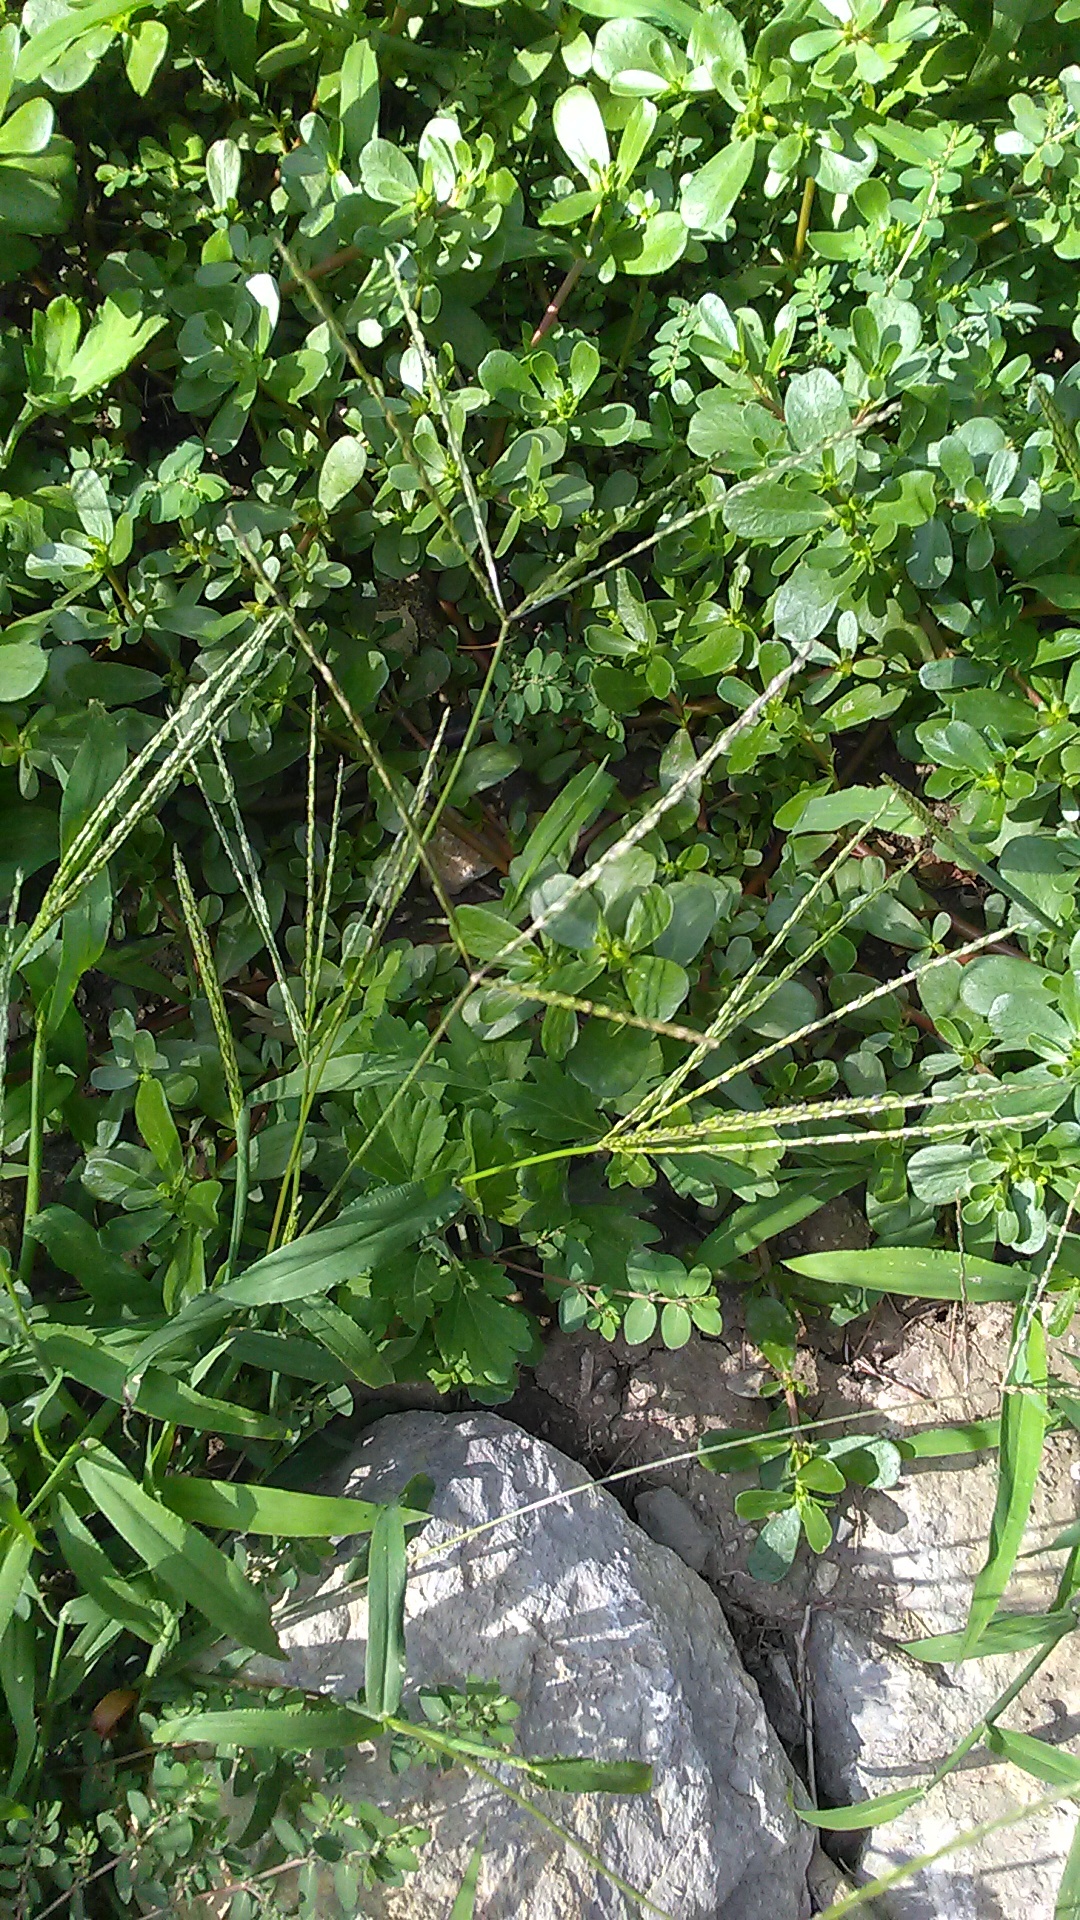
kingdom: Plantae
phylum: Tracheophyta
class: Liliopsida
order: Poales
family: Poaceae
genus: Digitaria
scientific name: Digitaria sanguinalis
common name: Hairy crabgrass
